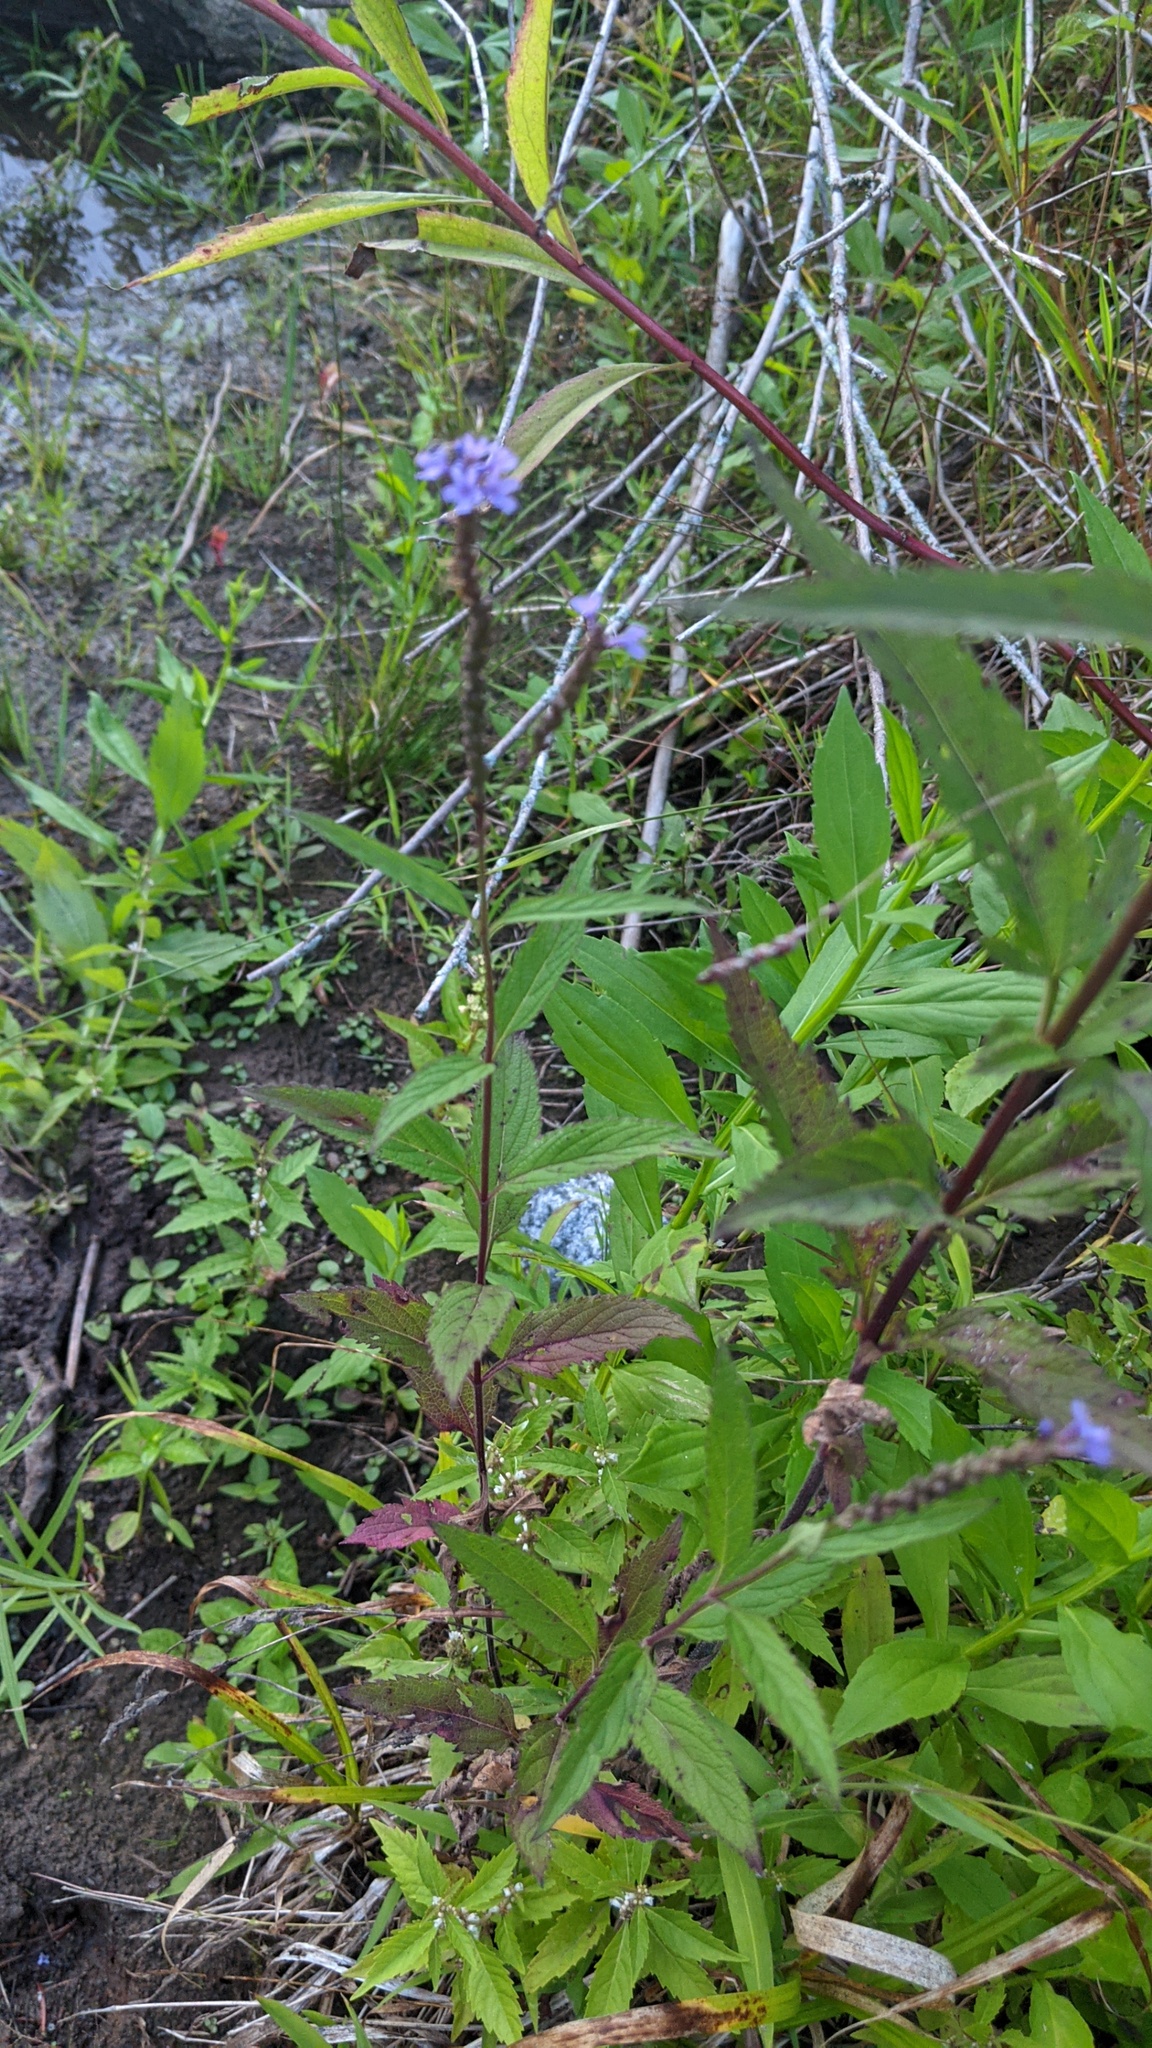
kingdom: Plantae
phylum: Tracheophyta
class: Magnoliopsida
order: Lamiales
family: Verbenaceae
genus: Verbena
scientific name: Verbena hastata
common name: American blue vervain
